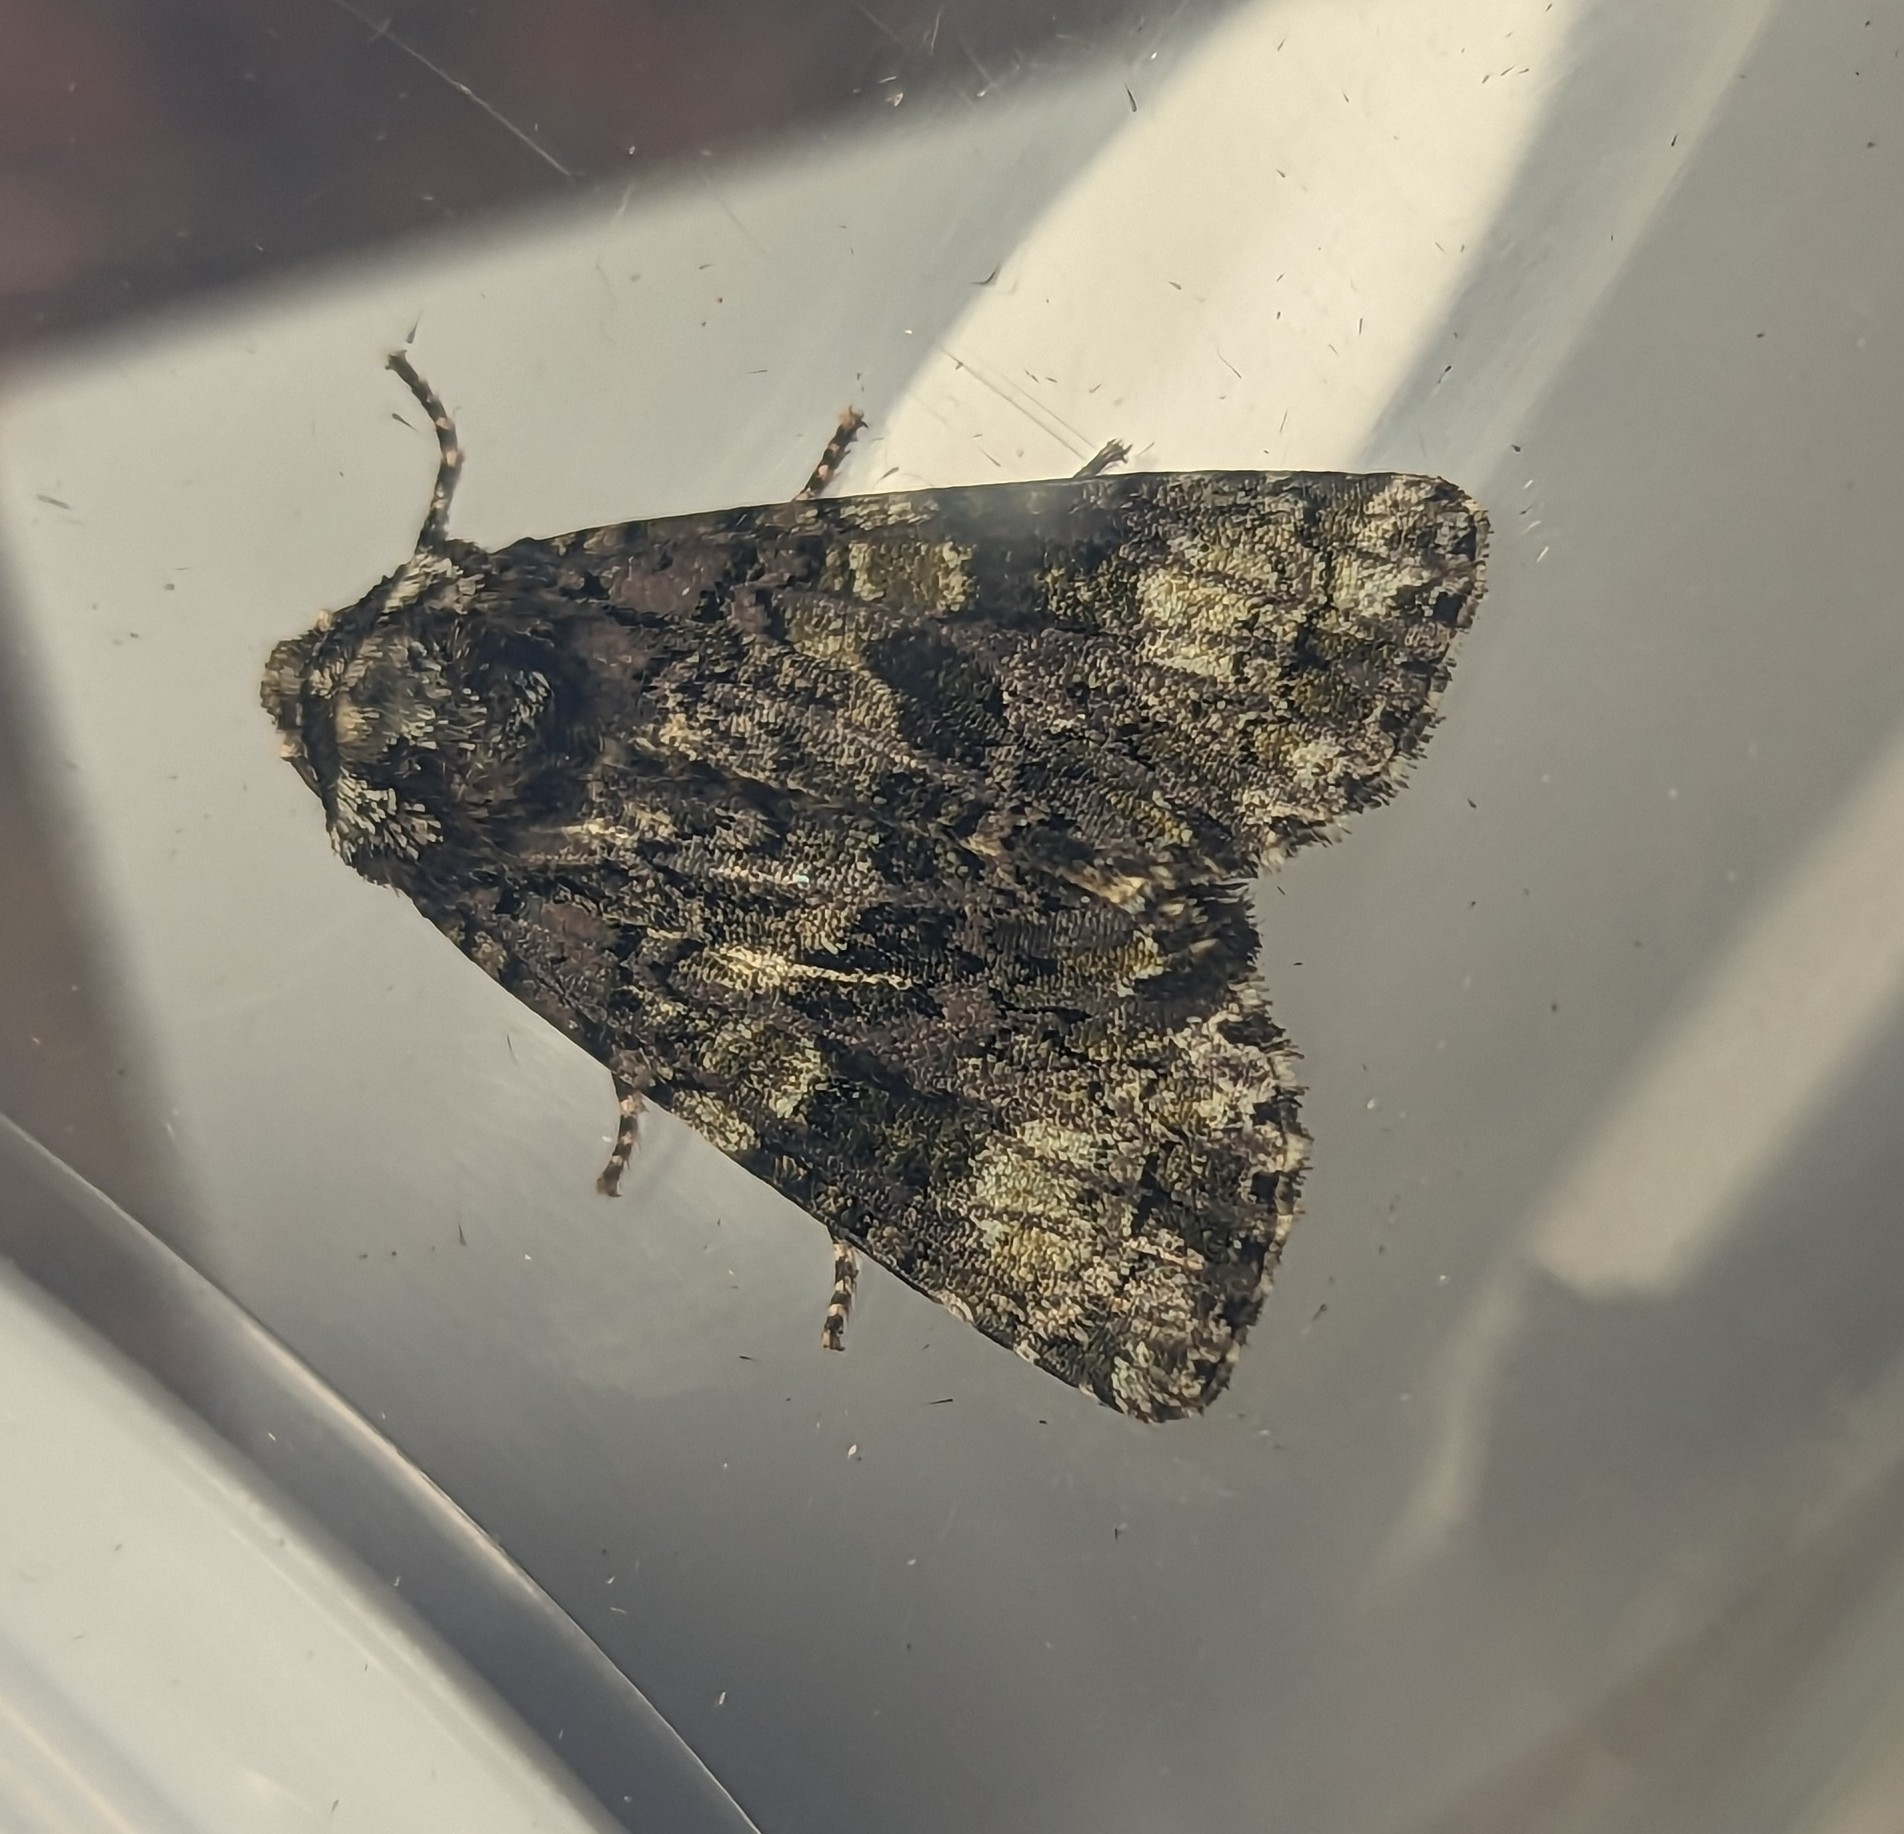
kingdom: Animalia
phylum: Arthropoda
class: Insecta
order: Lepidoptera
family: Noctuidae
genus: Craniophora
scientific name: Craniophora ligustri
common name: Coronet
